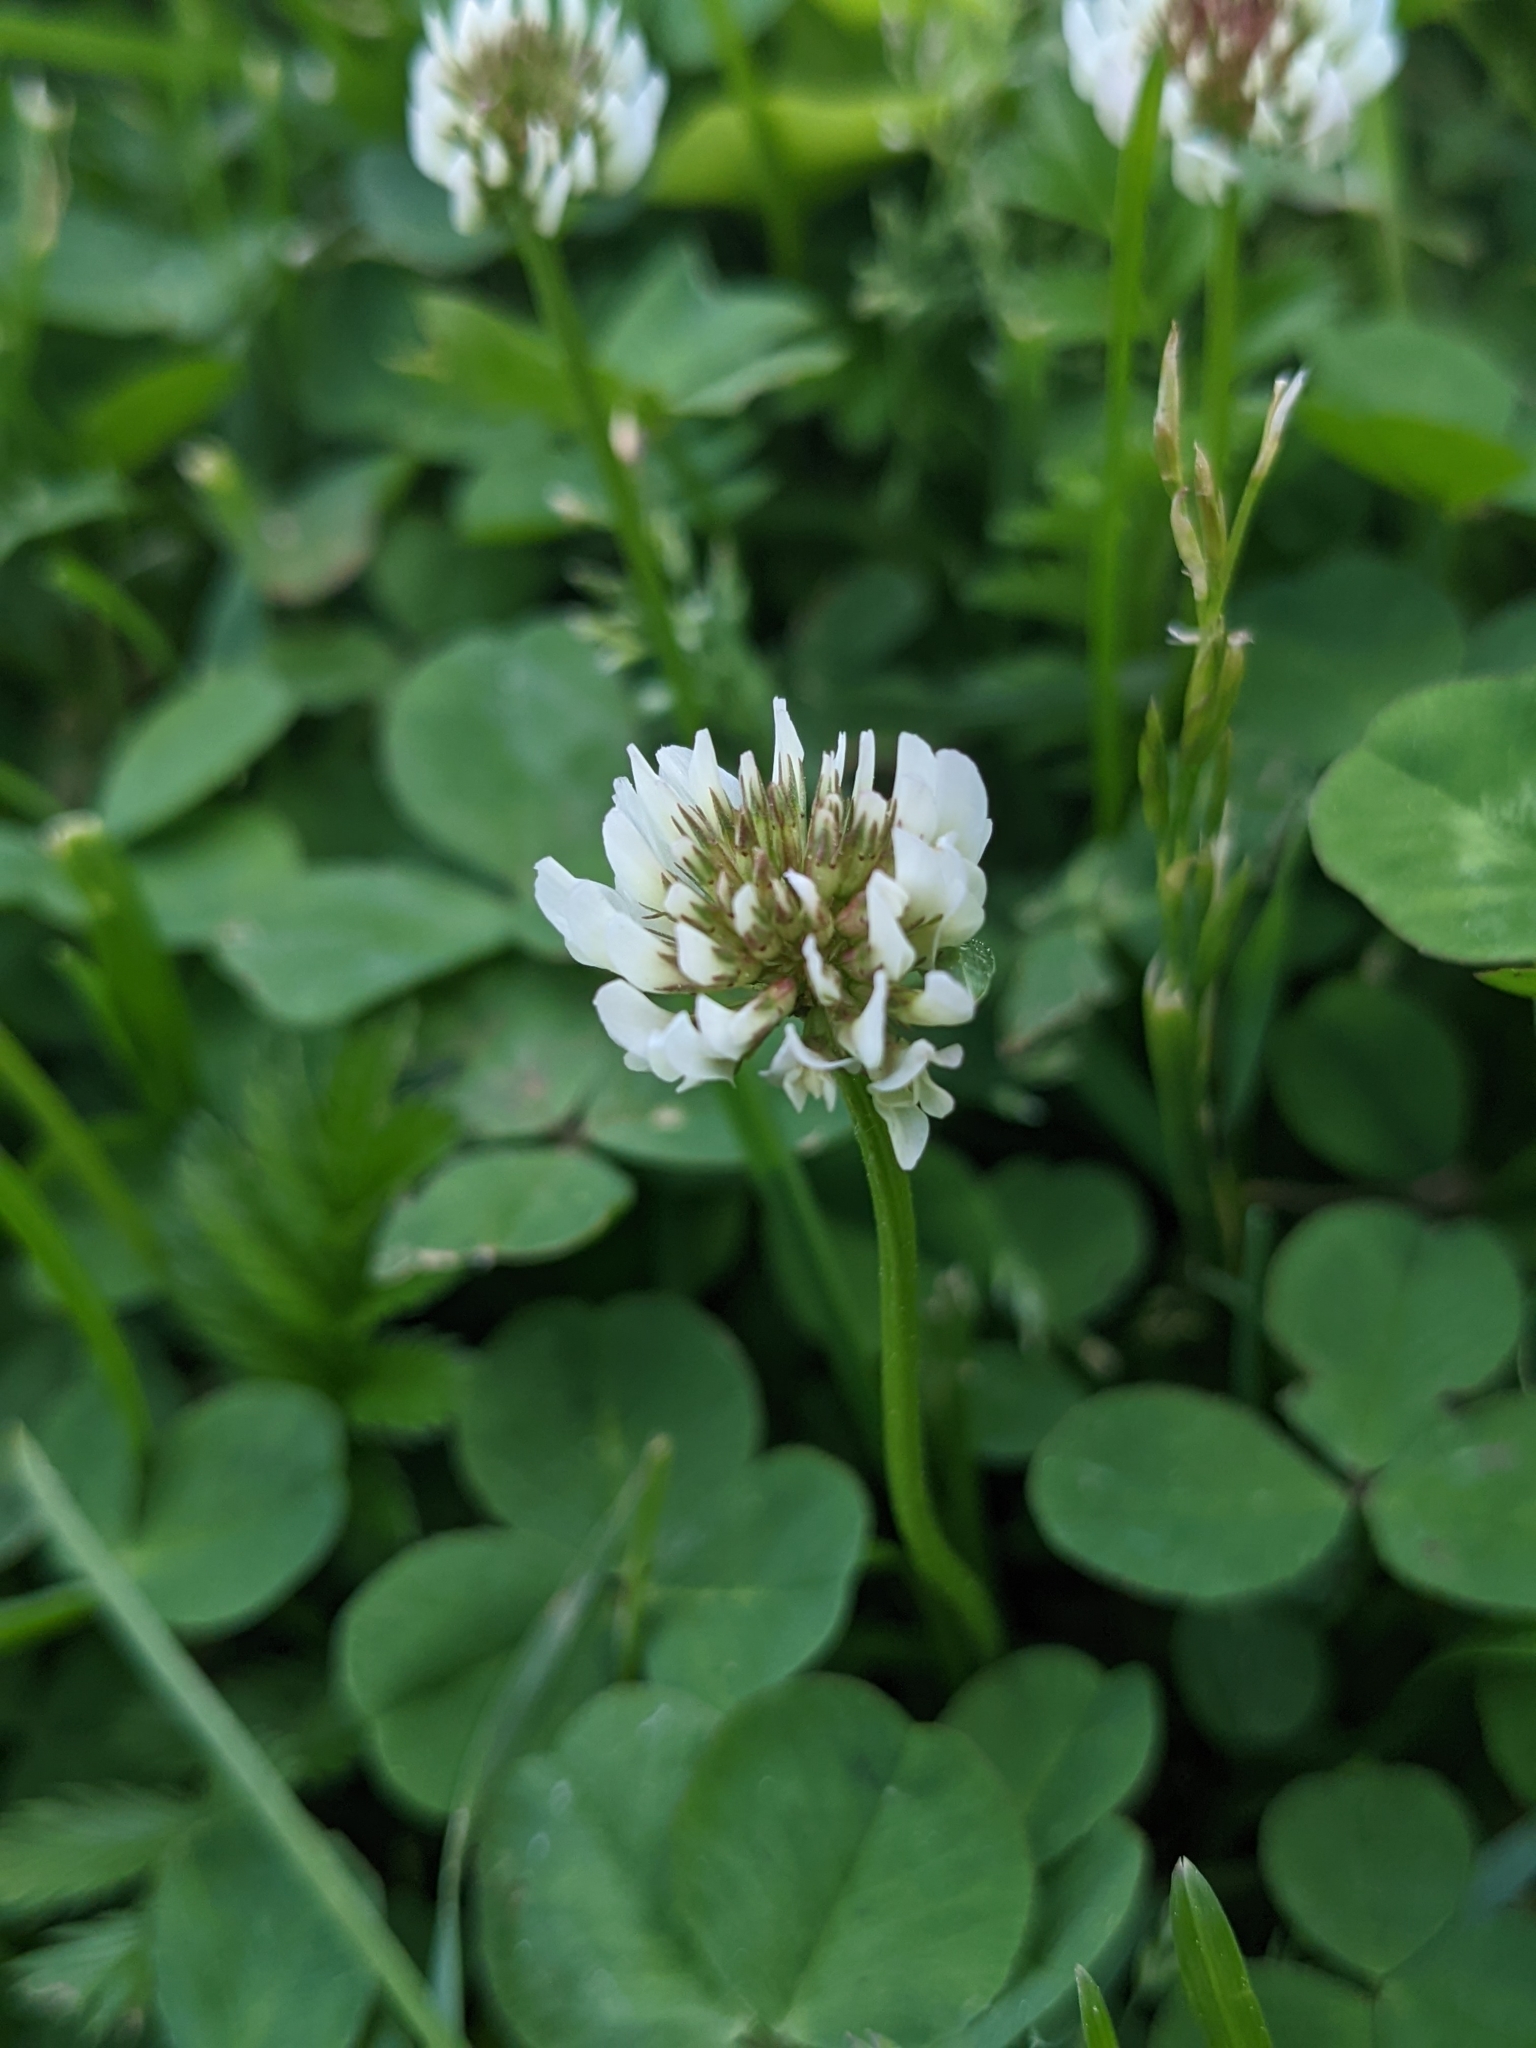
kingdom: Plantae
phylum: Tracheophyta
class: Magnoliopsida
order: Fabales
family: Fabaceae
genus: Trifolium
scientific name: Trifolium repens
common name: White clover
